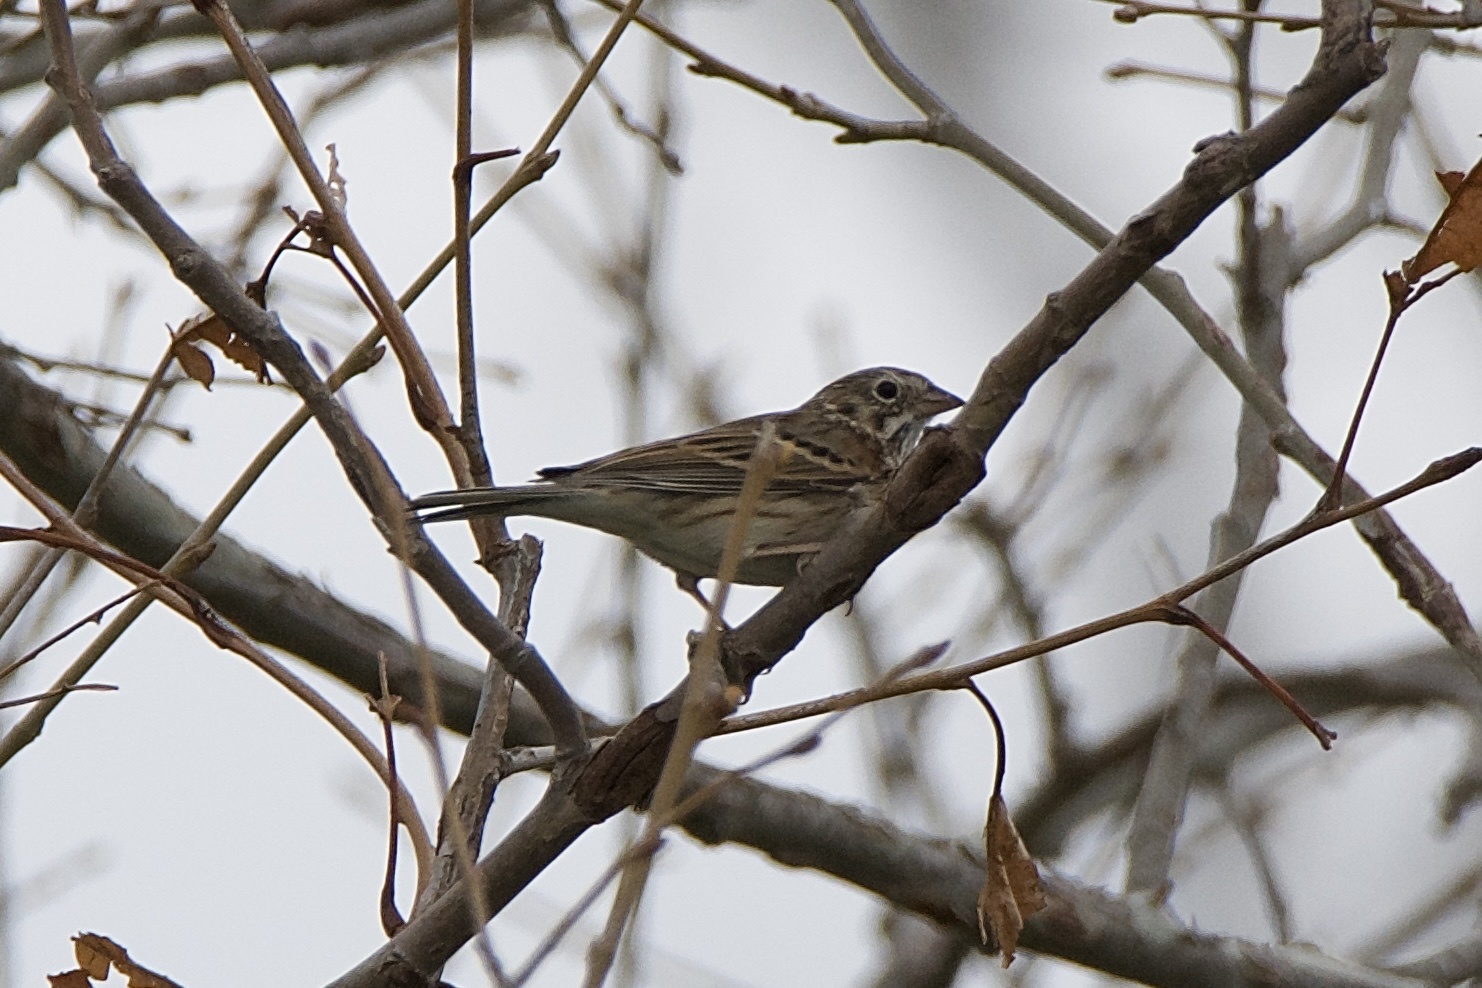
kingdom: Animalia
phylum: Chordata
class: Aves
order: Passeriformes
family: Passerellidae
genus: Pooecetes
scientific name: Pooecetes gramineus
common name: Vesper sparrow
